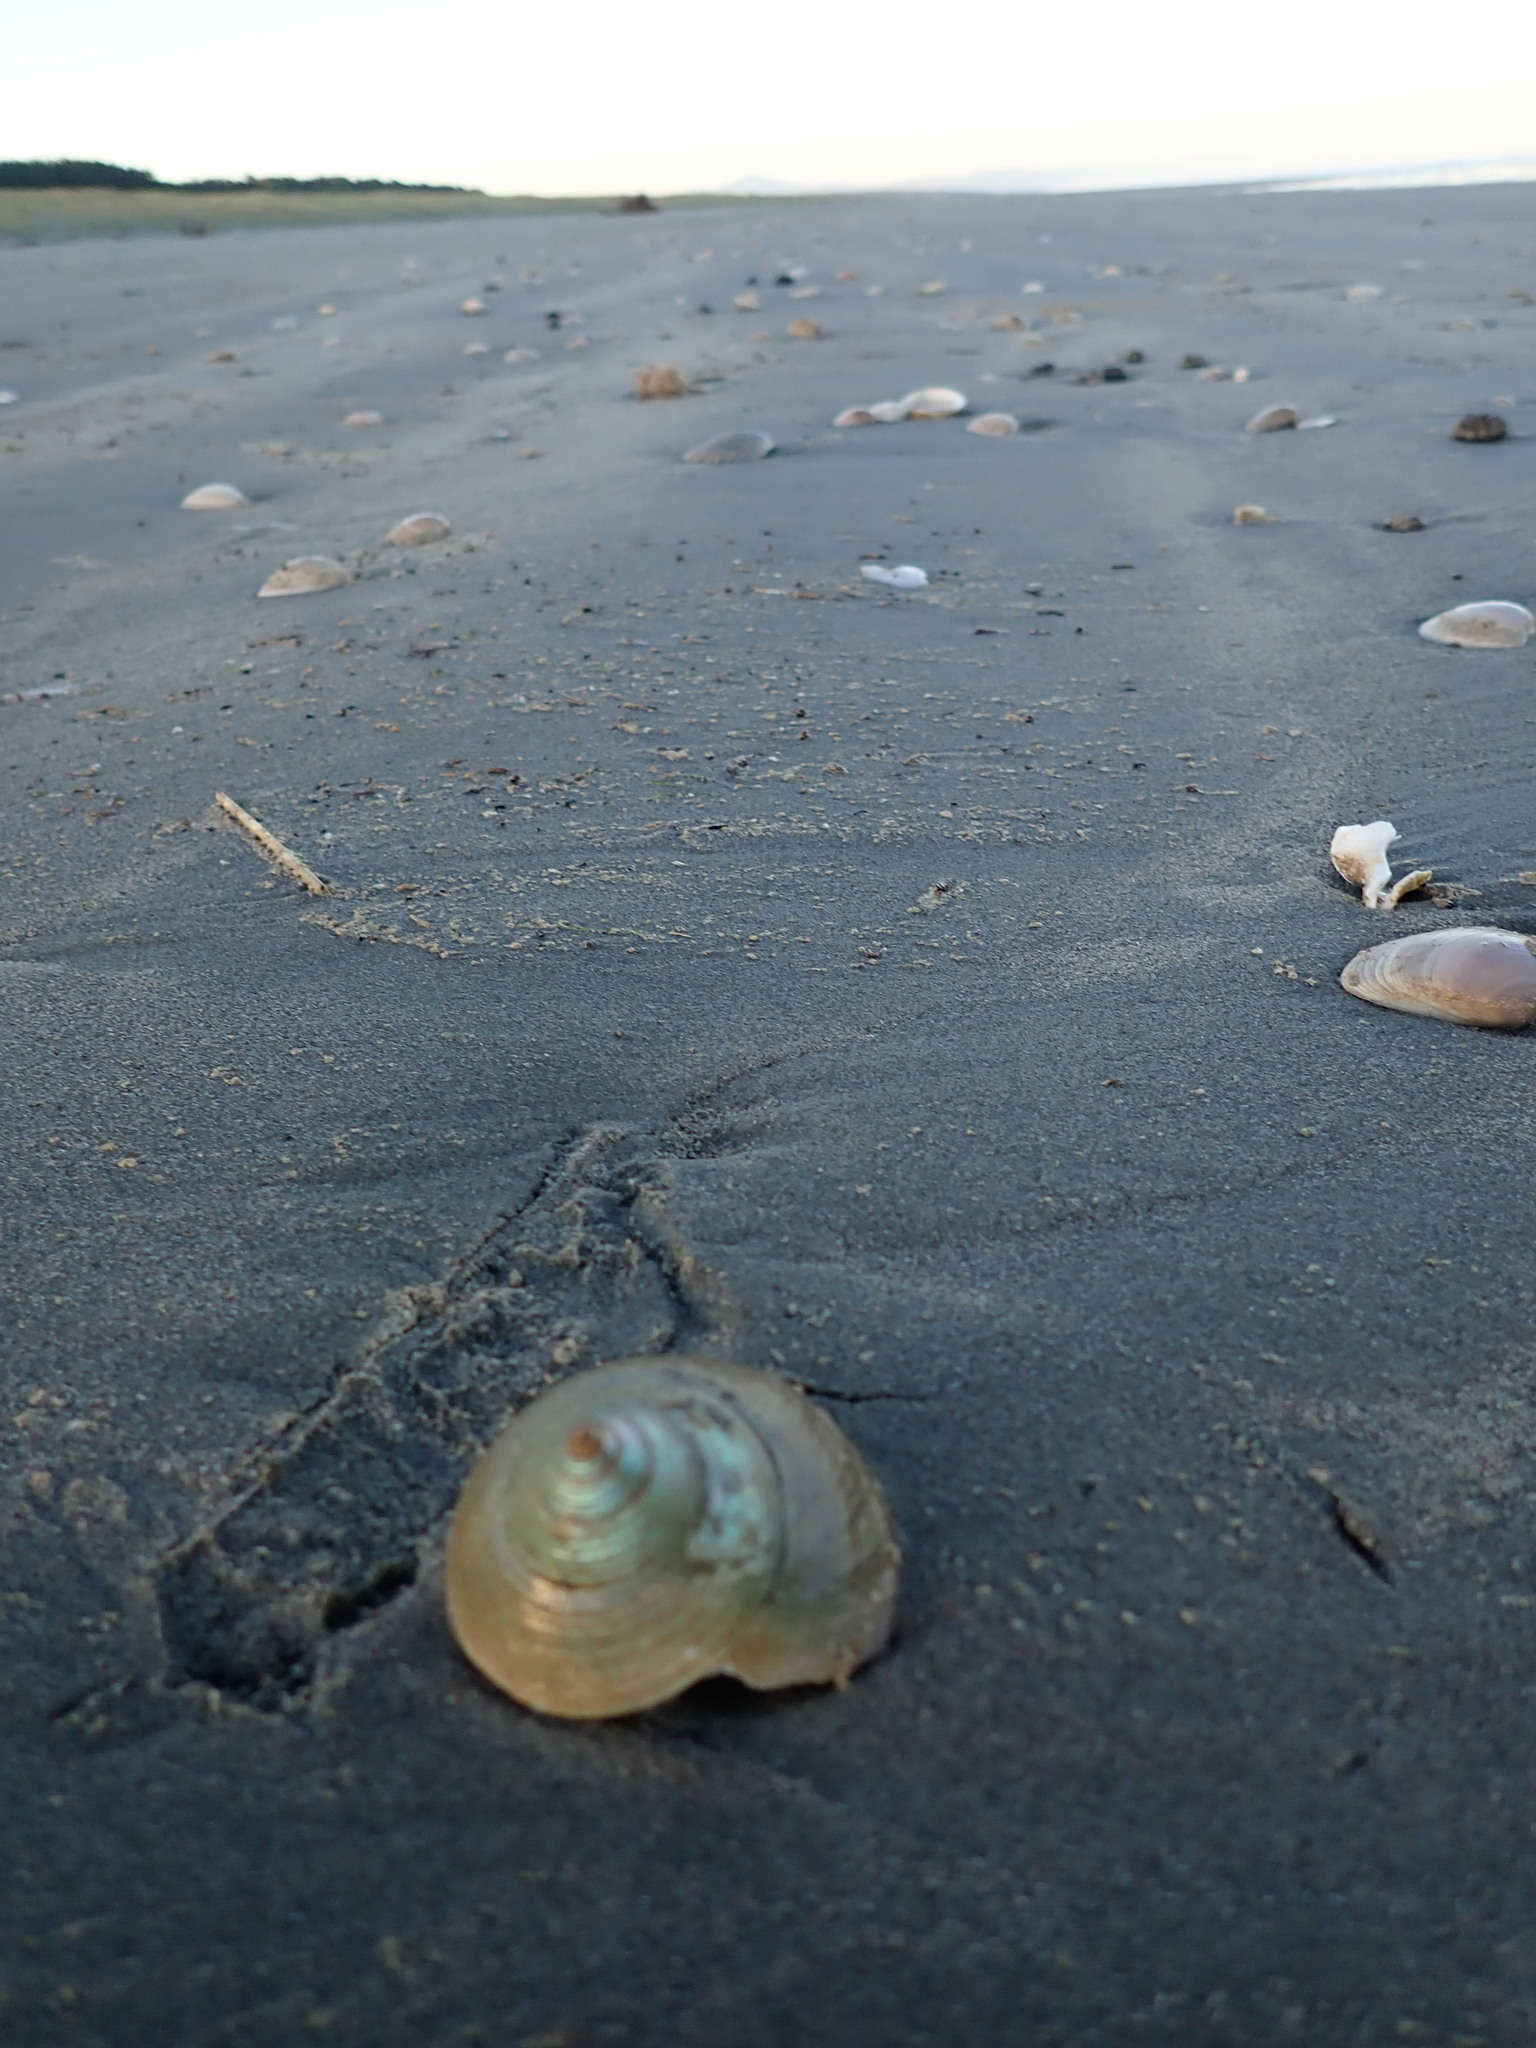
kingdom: Animalia
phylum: Mollusca
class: Gastropoda
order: Trochida
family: Calliostomatidae
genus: Maurea
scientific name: Maurea selecta
